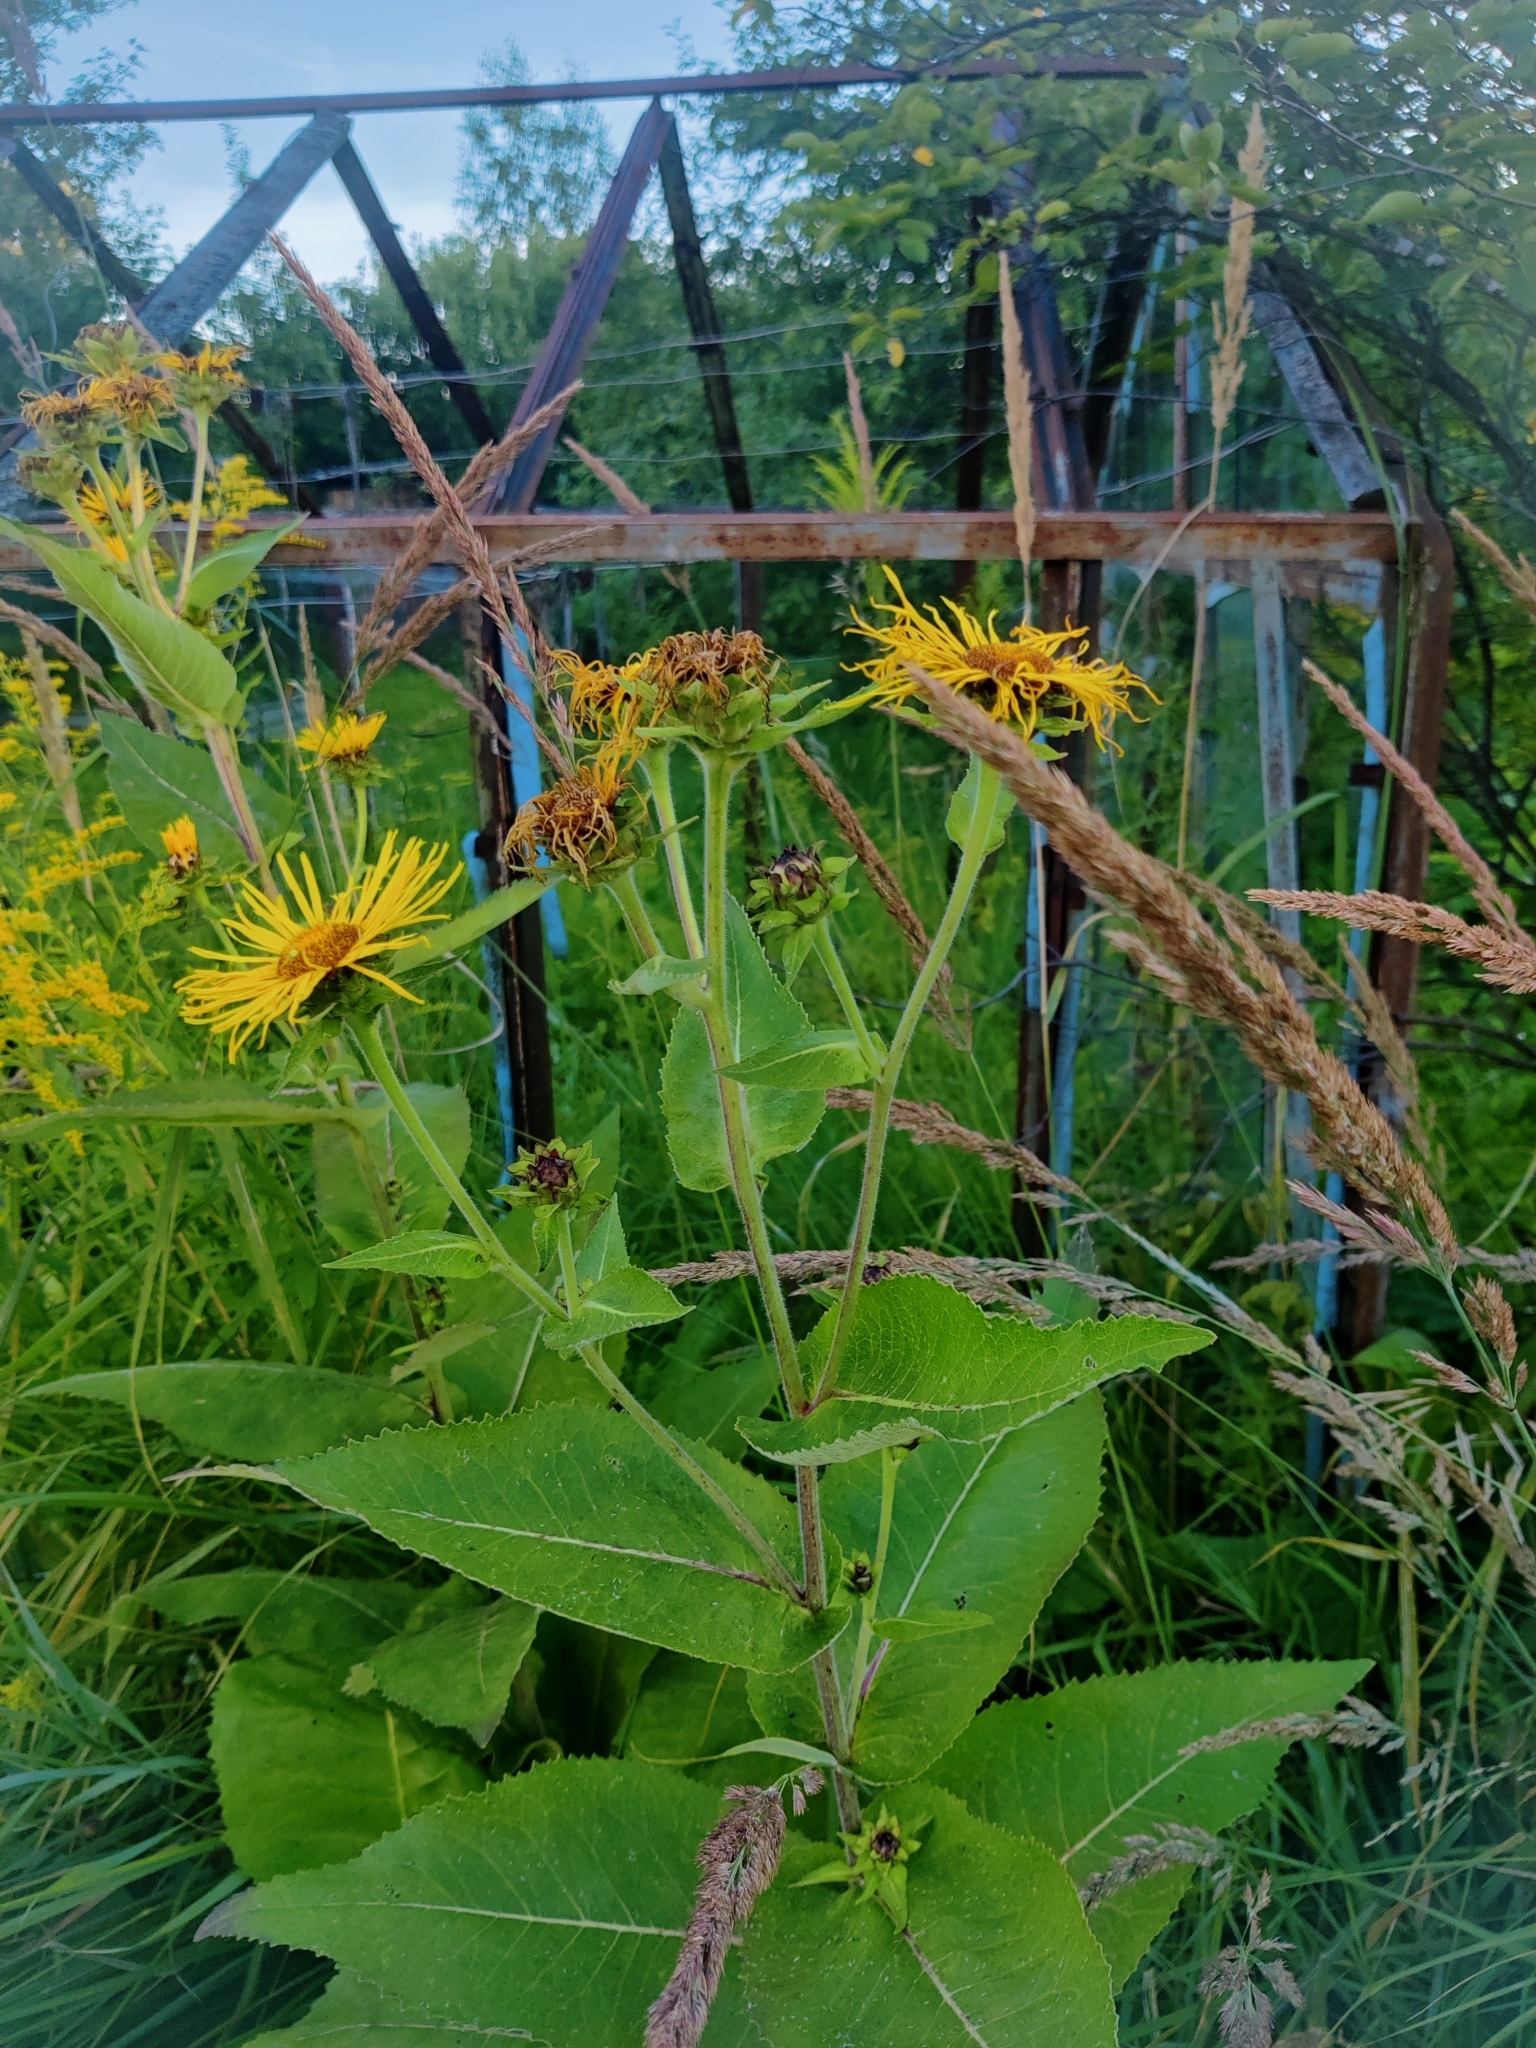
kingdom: Plantae
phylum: Tracheophyta
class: Magnoliopsida
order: Asterales
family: Asteraceae
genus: Inula
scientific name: Inula helenium
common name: Elecampane
